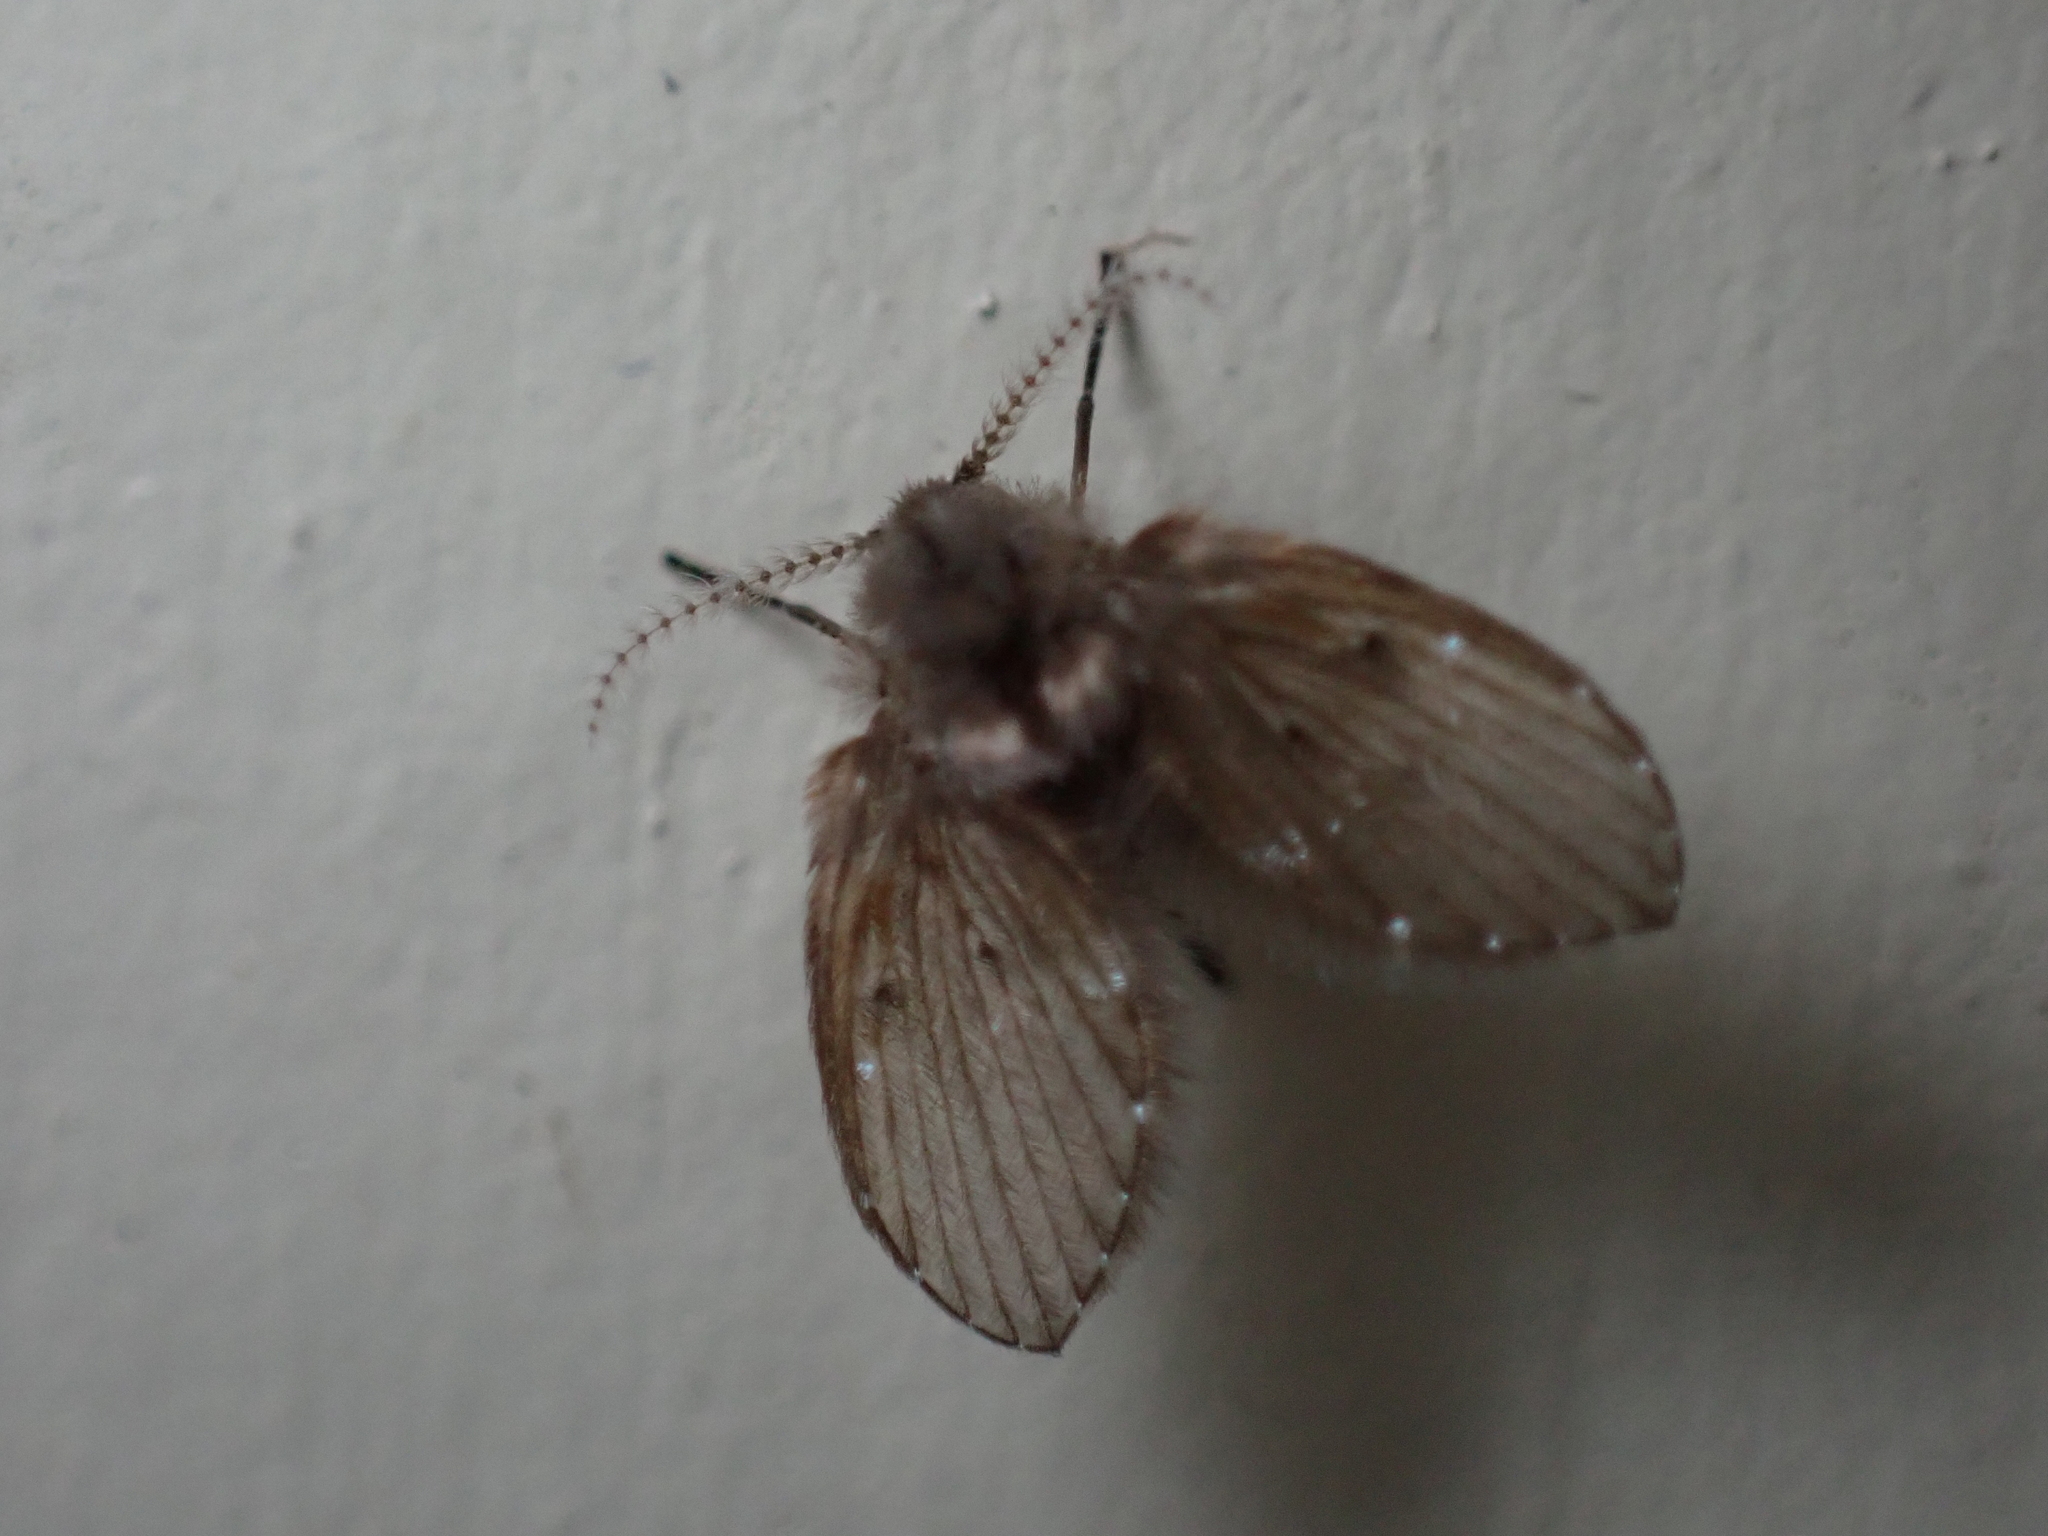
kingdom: Animalia
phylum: Arthropoda
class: Insecta
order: Diptera
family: Psychodidae
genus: Clogmia
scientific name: Clogmia albipunctatus
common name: White-spotted moth fly
